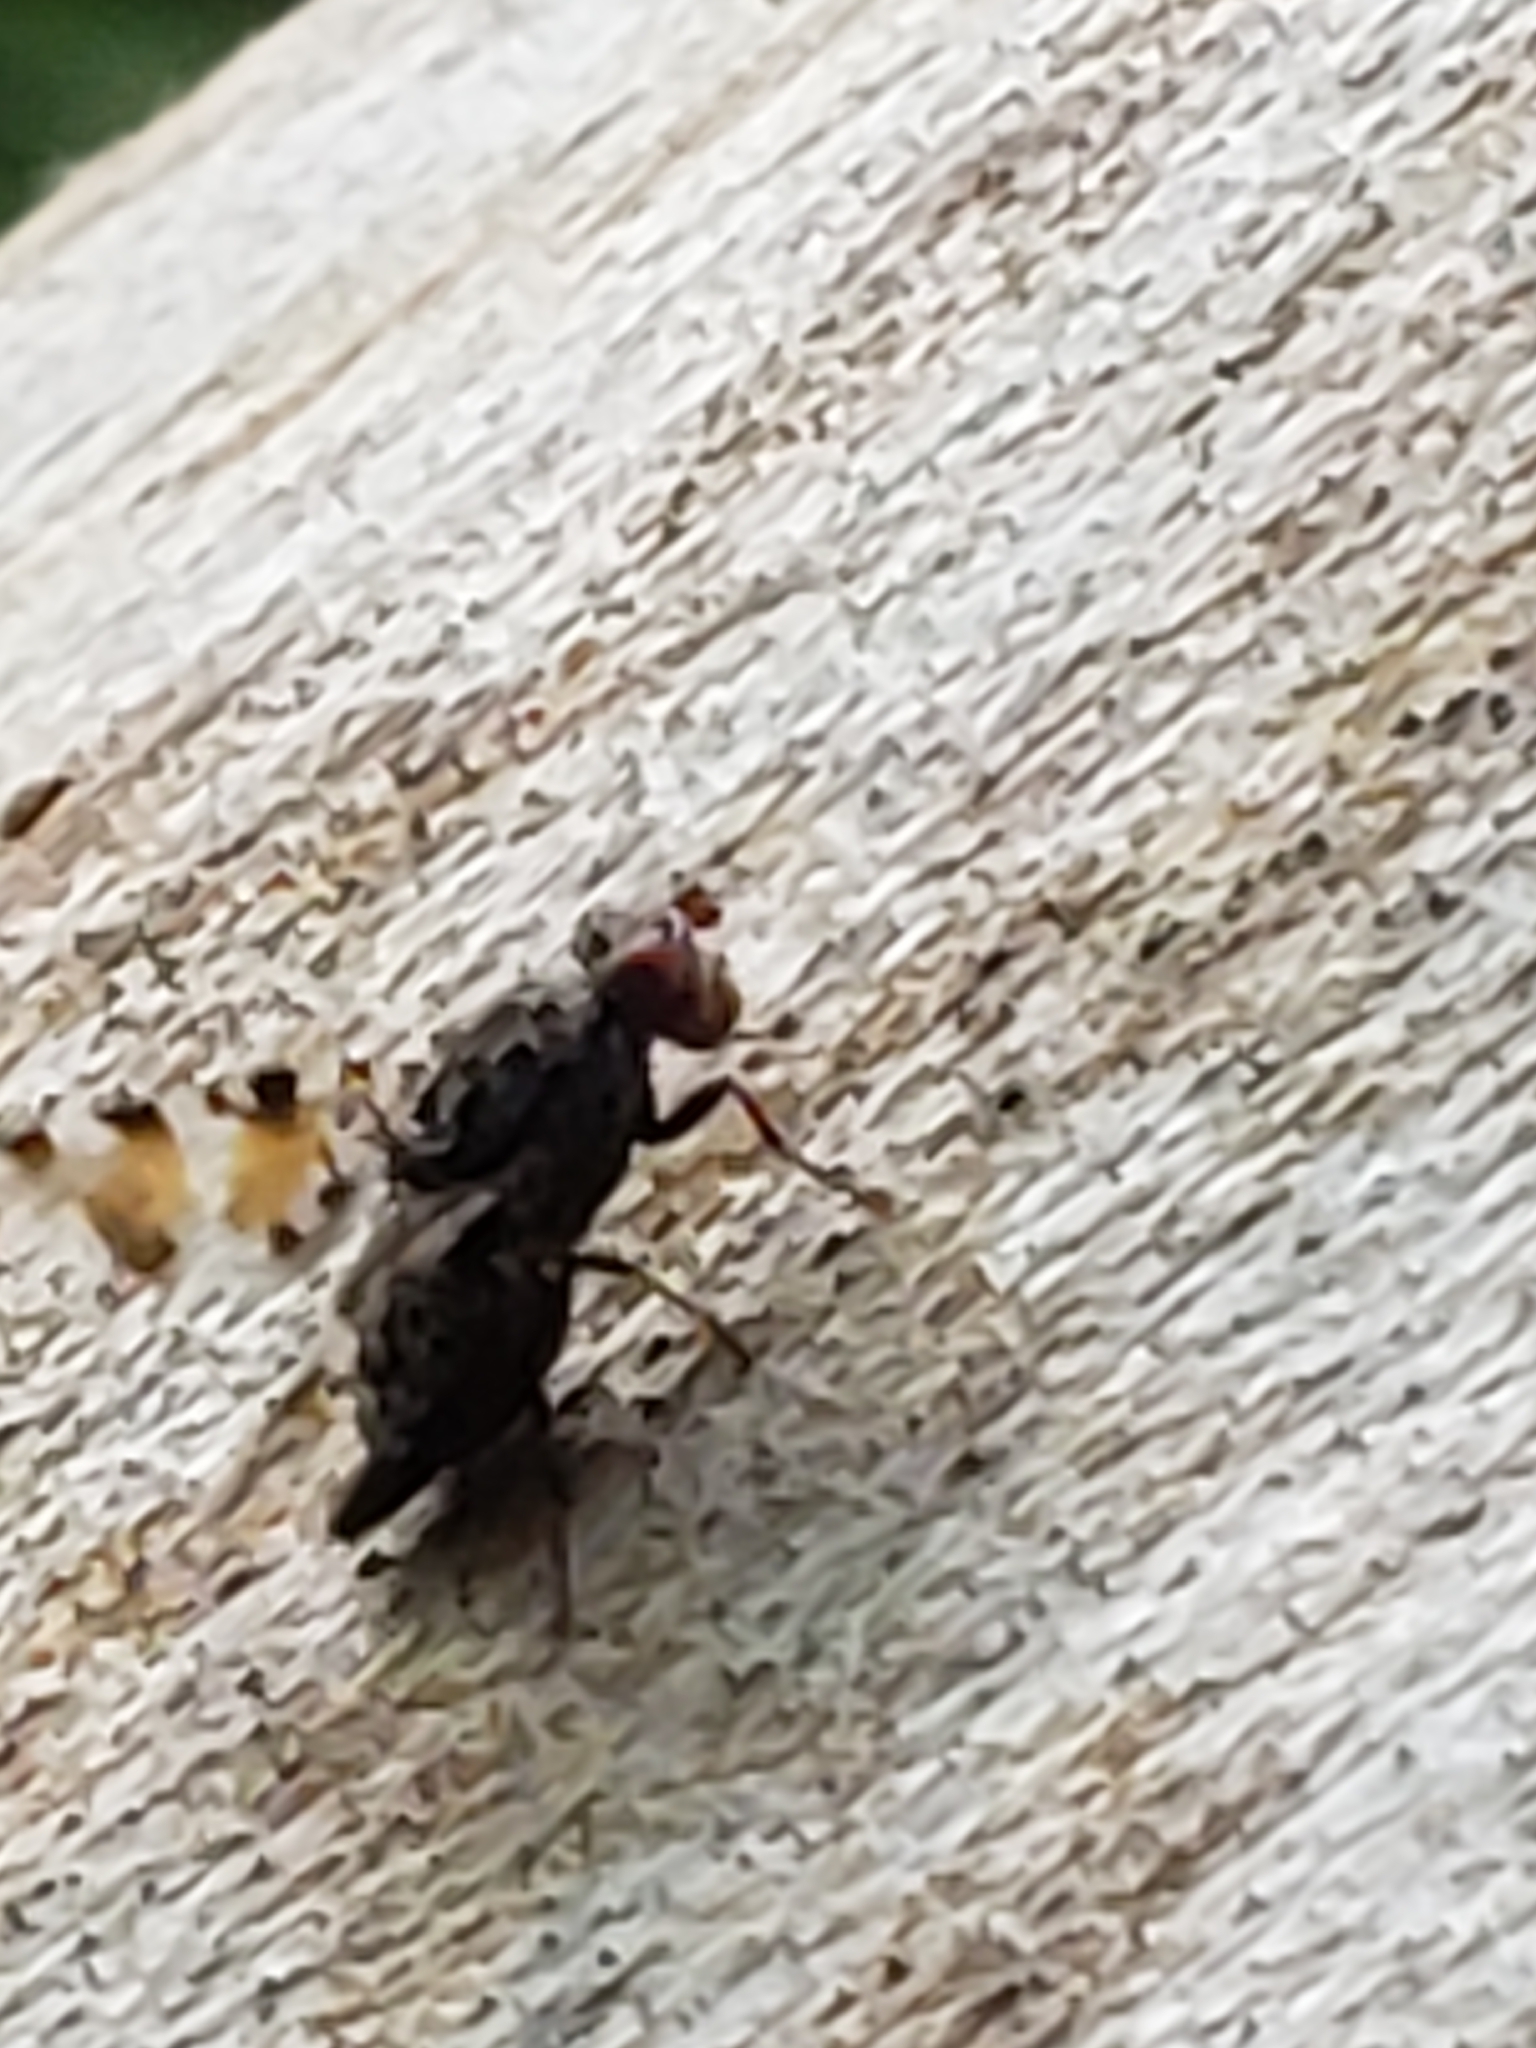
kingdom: Animalia
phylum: Arthropoda
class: Insecta
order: Diptera
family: Ulidiidae
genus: Pseudotephritis
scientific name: Pseudotephritis vau
